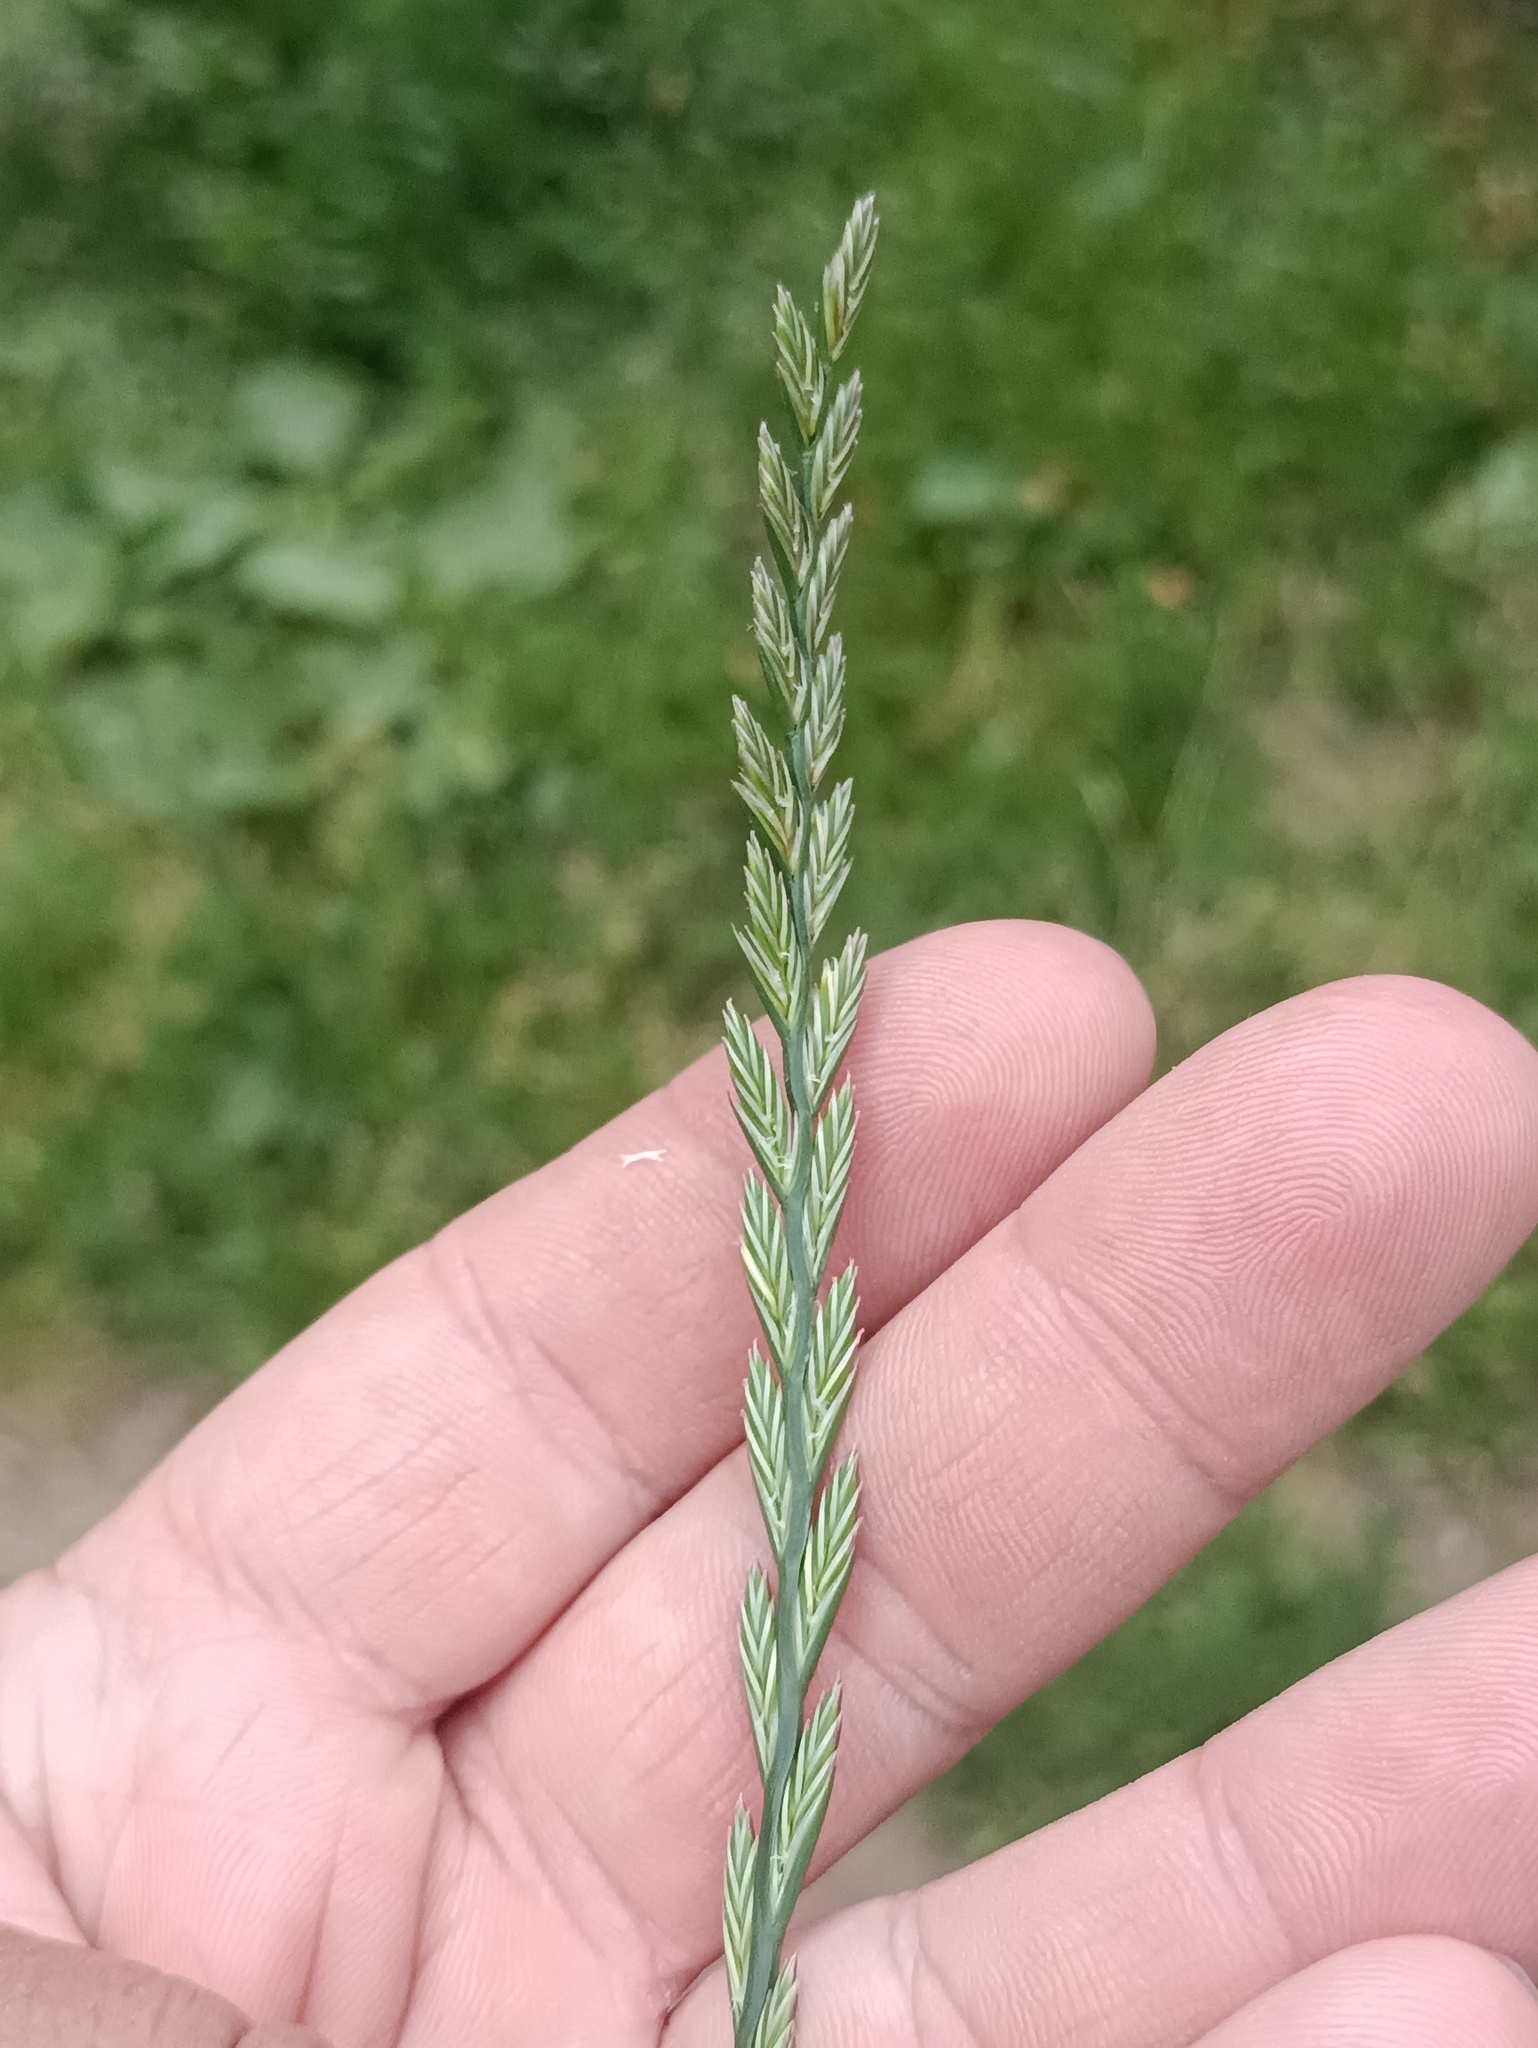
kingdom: Plantae
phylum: Tracheophyta
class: Liliopsida
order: Poales
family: Poaceae
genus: Lolium
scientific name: Lolium perenne
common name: Perennial ryegrass
